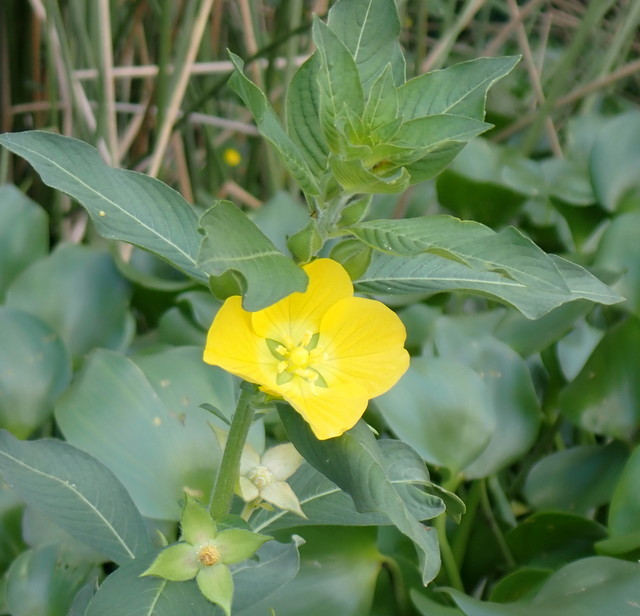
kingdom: Plantae
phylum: Tracheophyta
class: Magnoliopsida
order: Myrtales
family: Onagraceae
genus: Ludwigia
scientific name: Ludwigia peruviana
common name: Peruvian primrose-willow
